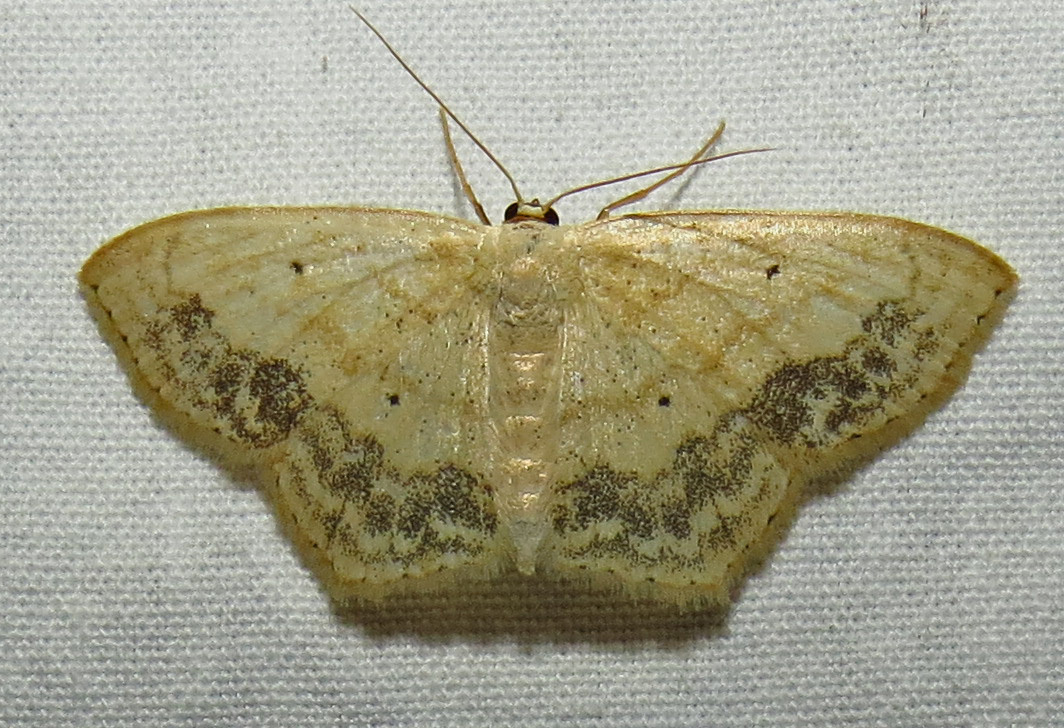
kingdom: Animalia
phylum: Arthropoda
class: Insecta
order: Lepidoptera
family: Geometridae
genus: Scopula
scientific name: Scopula limboundata
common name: Large lace border
